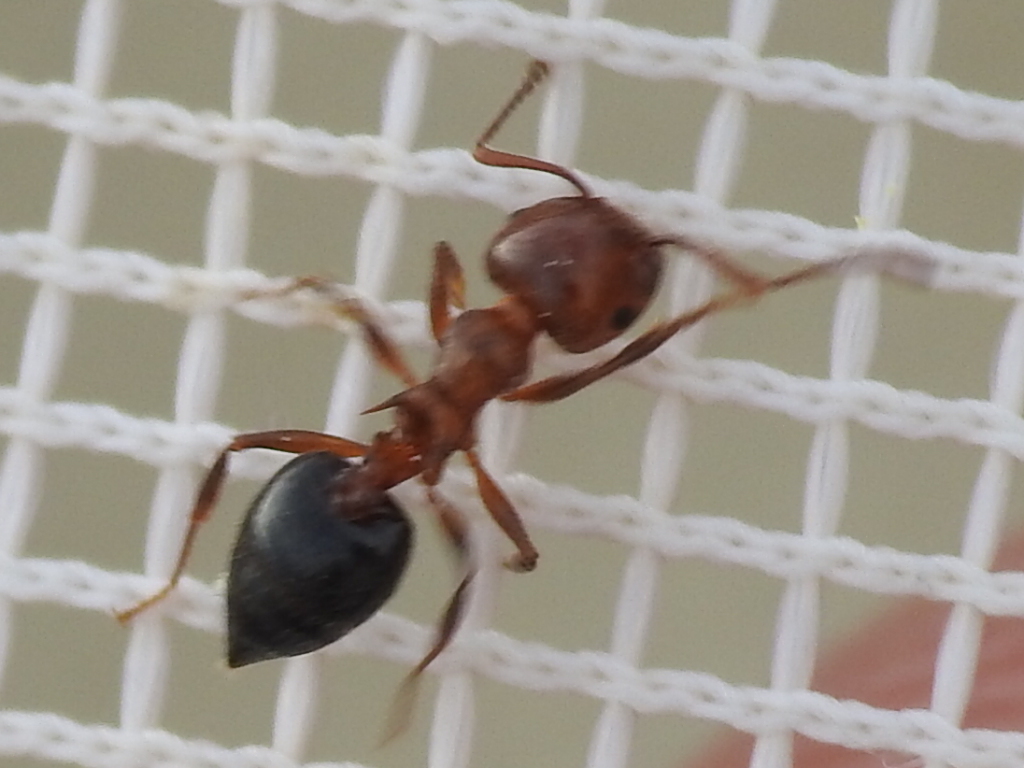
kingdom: Animalia
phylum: Arthropoda
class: Insecta
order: Hymenoptera
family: Formicidae
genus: Crematogaster
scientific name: Crematogaster laeviuscula
